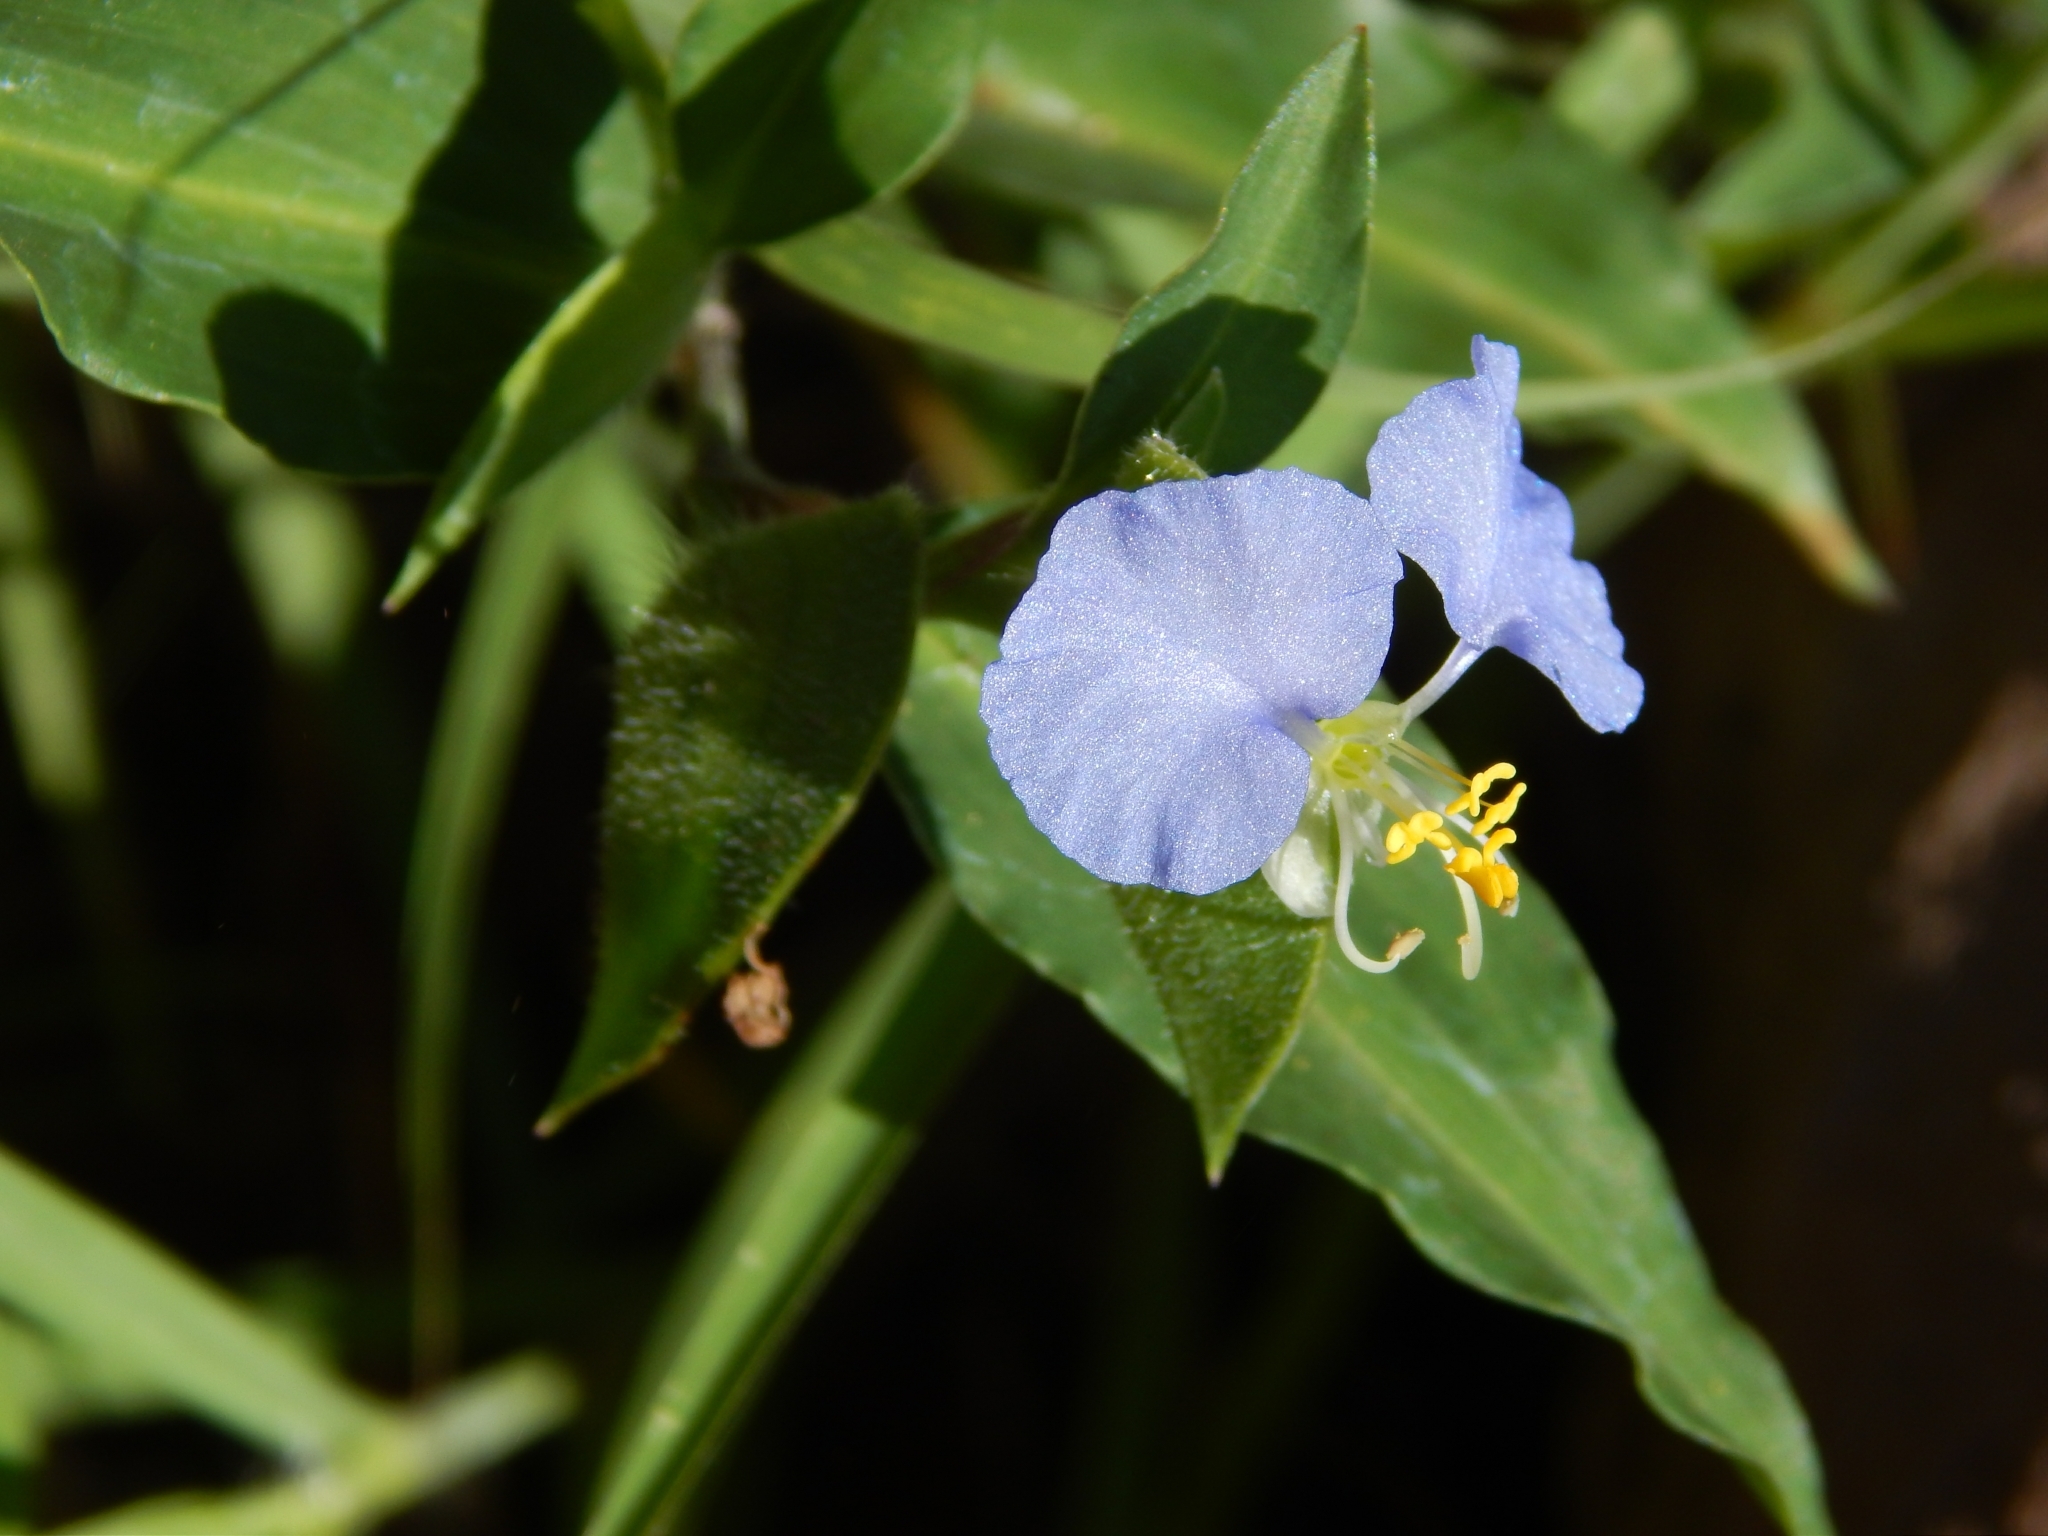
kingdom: Plantae
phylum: Tracheophyta
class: Liliopsida
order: Commelinales
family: Commelinaceae
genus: Commelina
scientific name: Commelina erecta
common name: Blousel blommetjie
